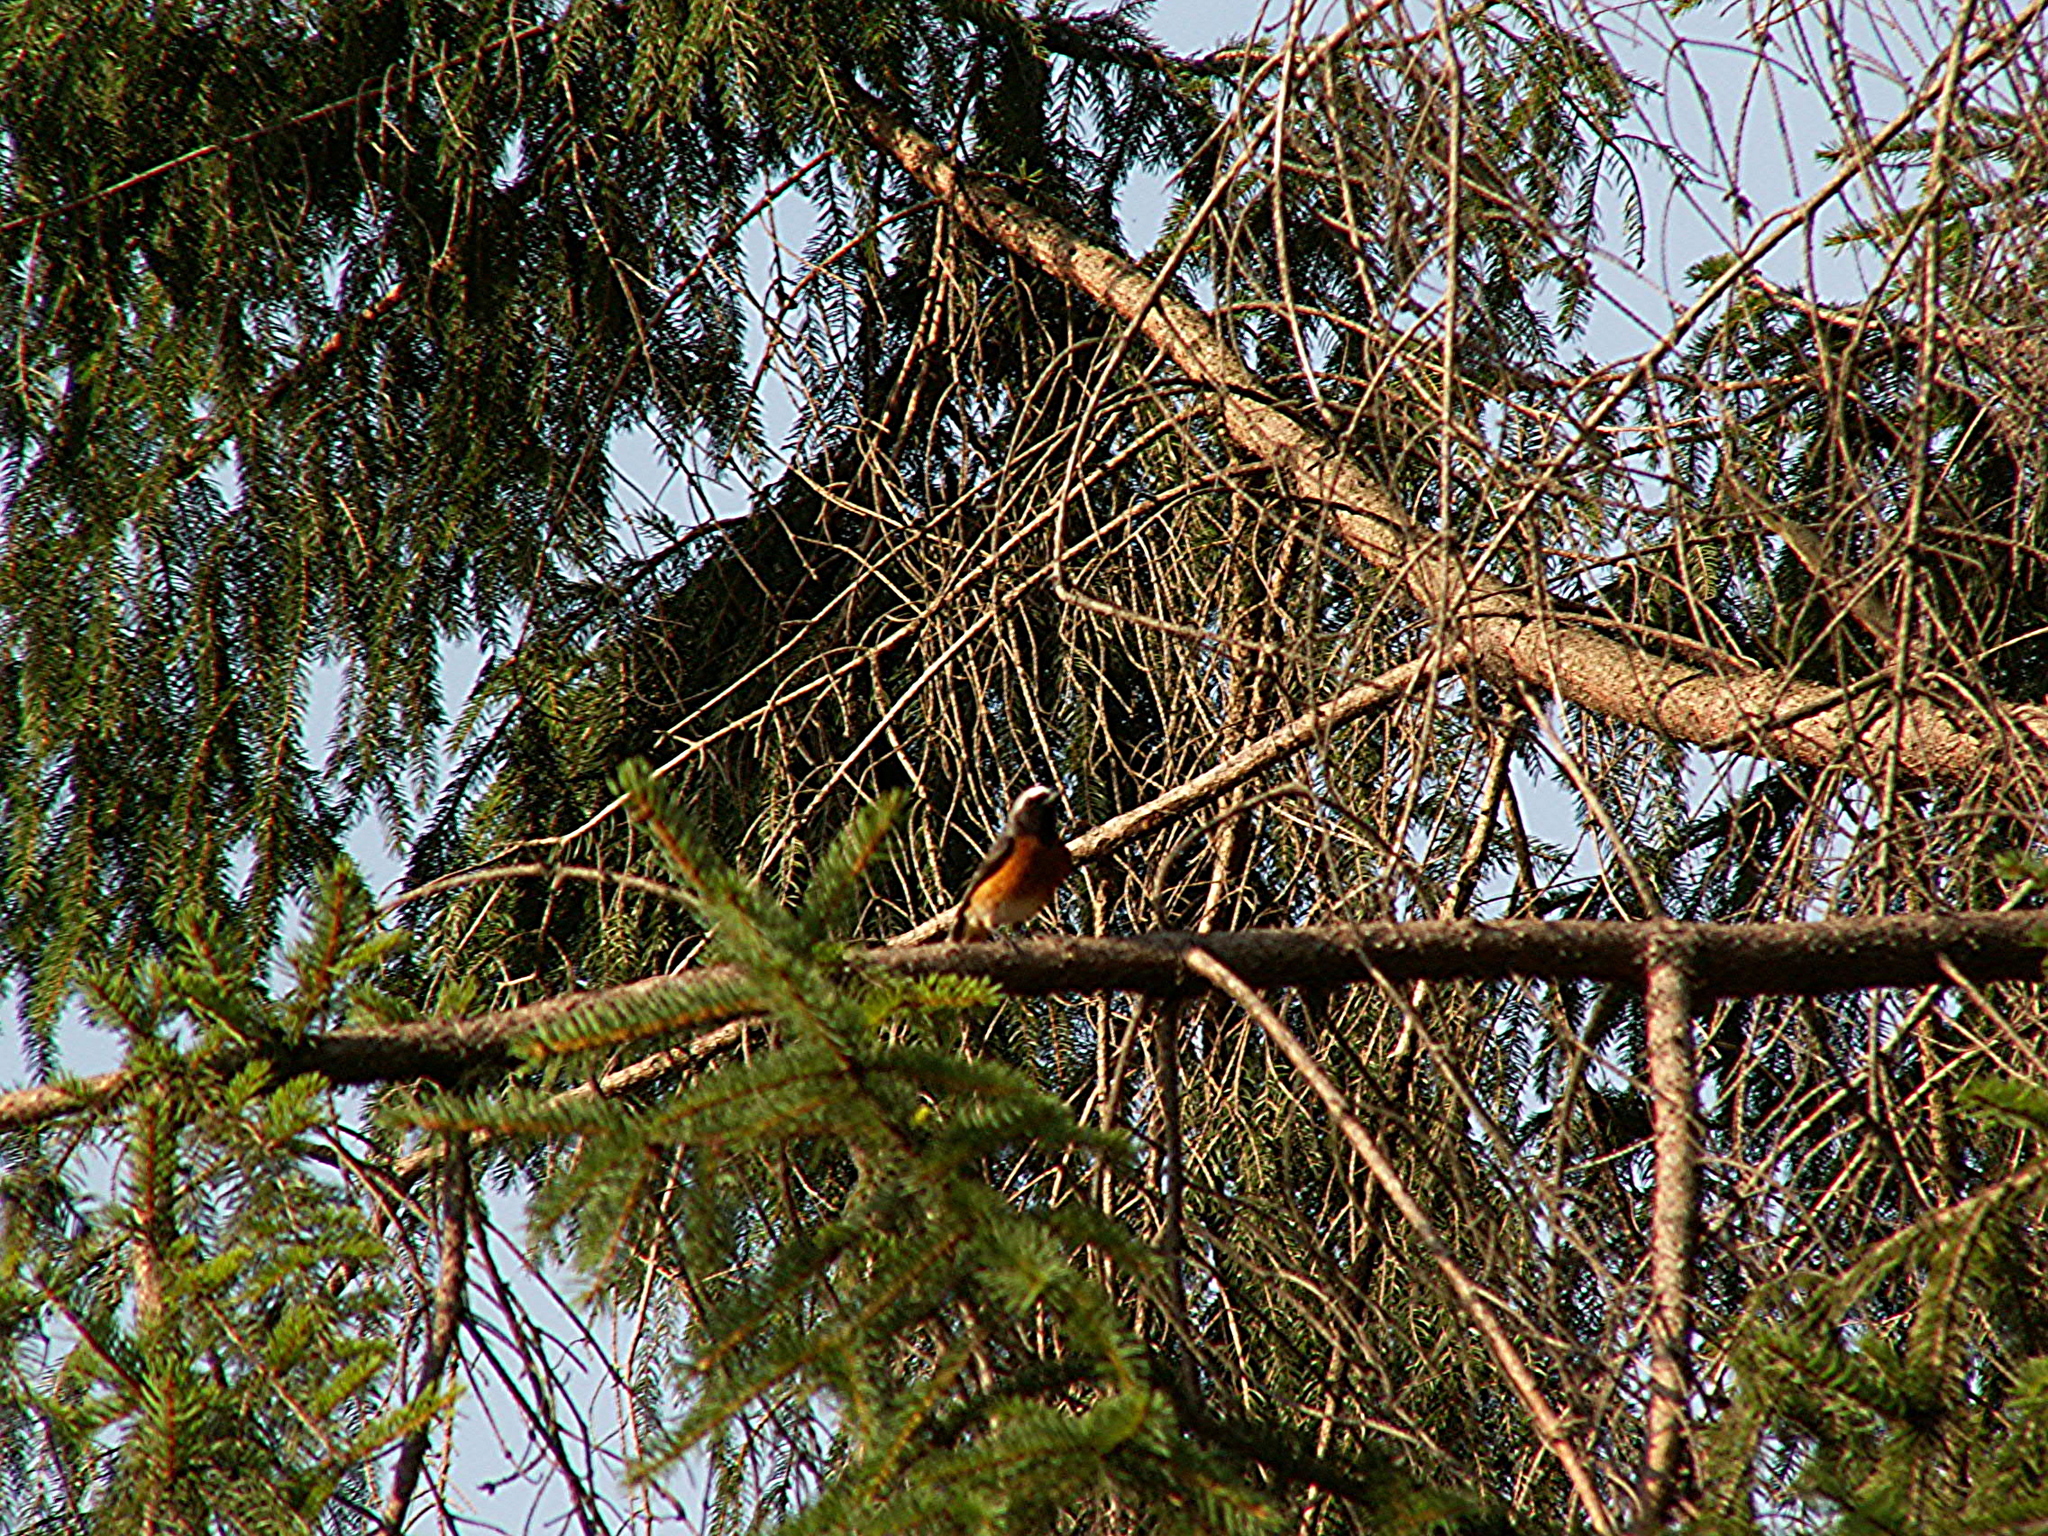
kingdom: Animalia
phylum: Chordata
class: Aves
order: Passeriformes
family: Muscicapidae
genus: Phoenicurus
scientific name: Phoenicurus phoenicurus
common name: Common redstart
